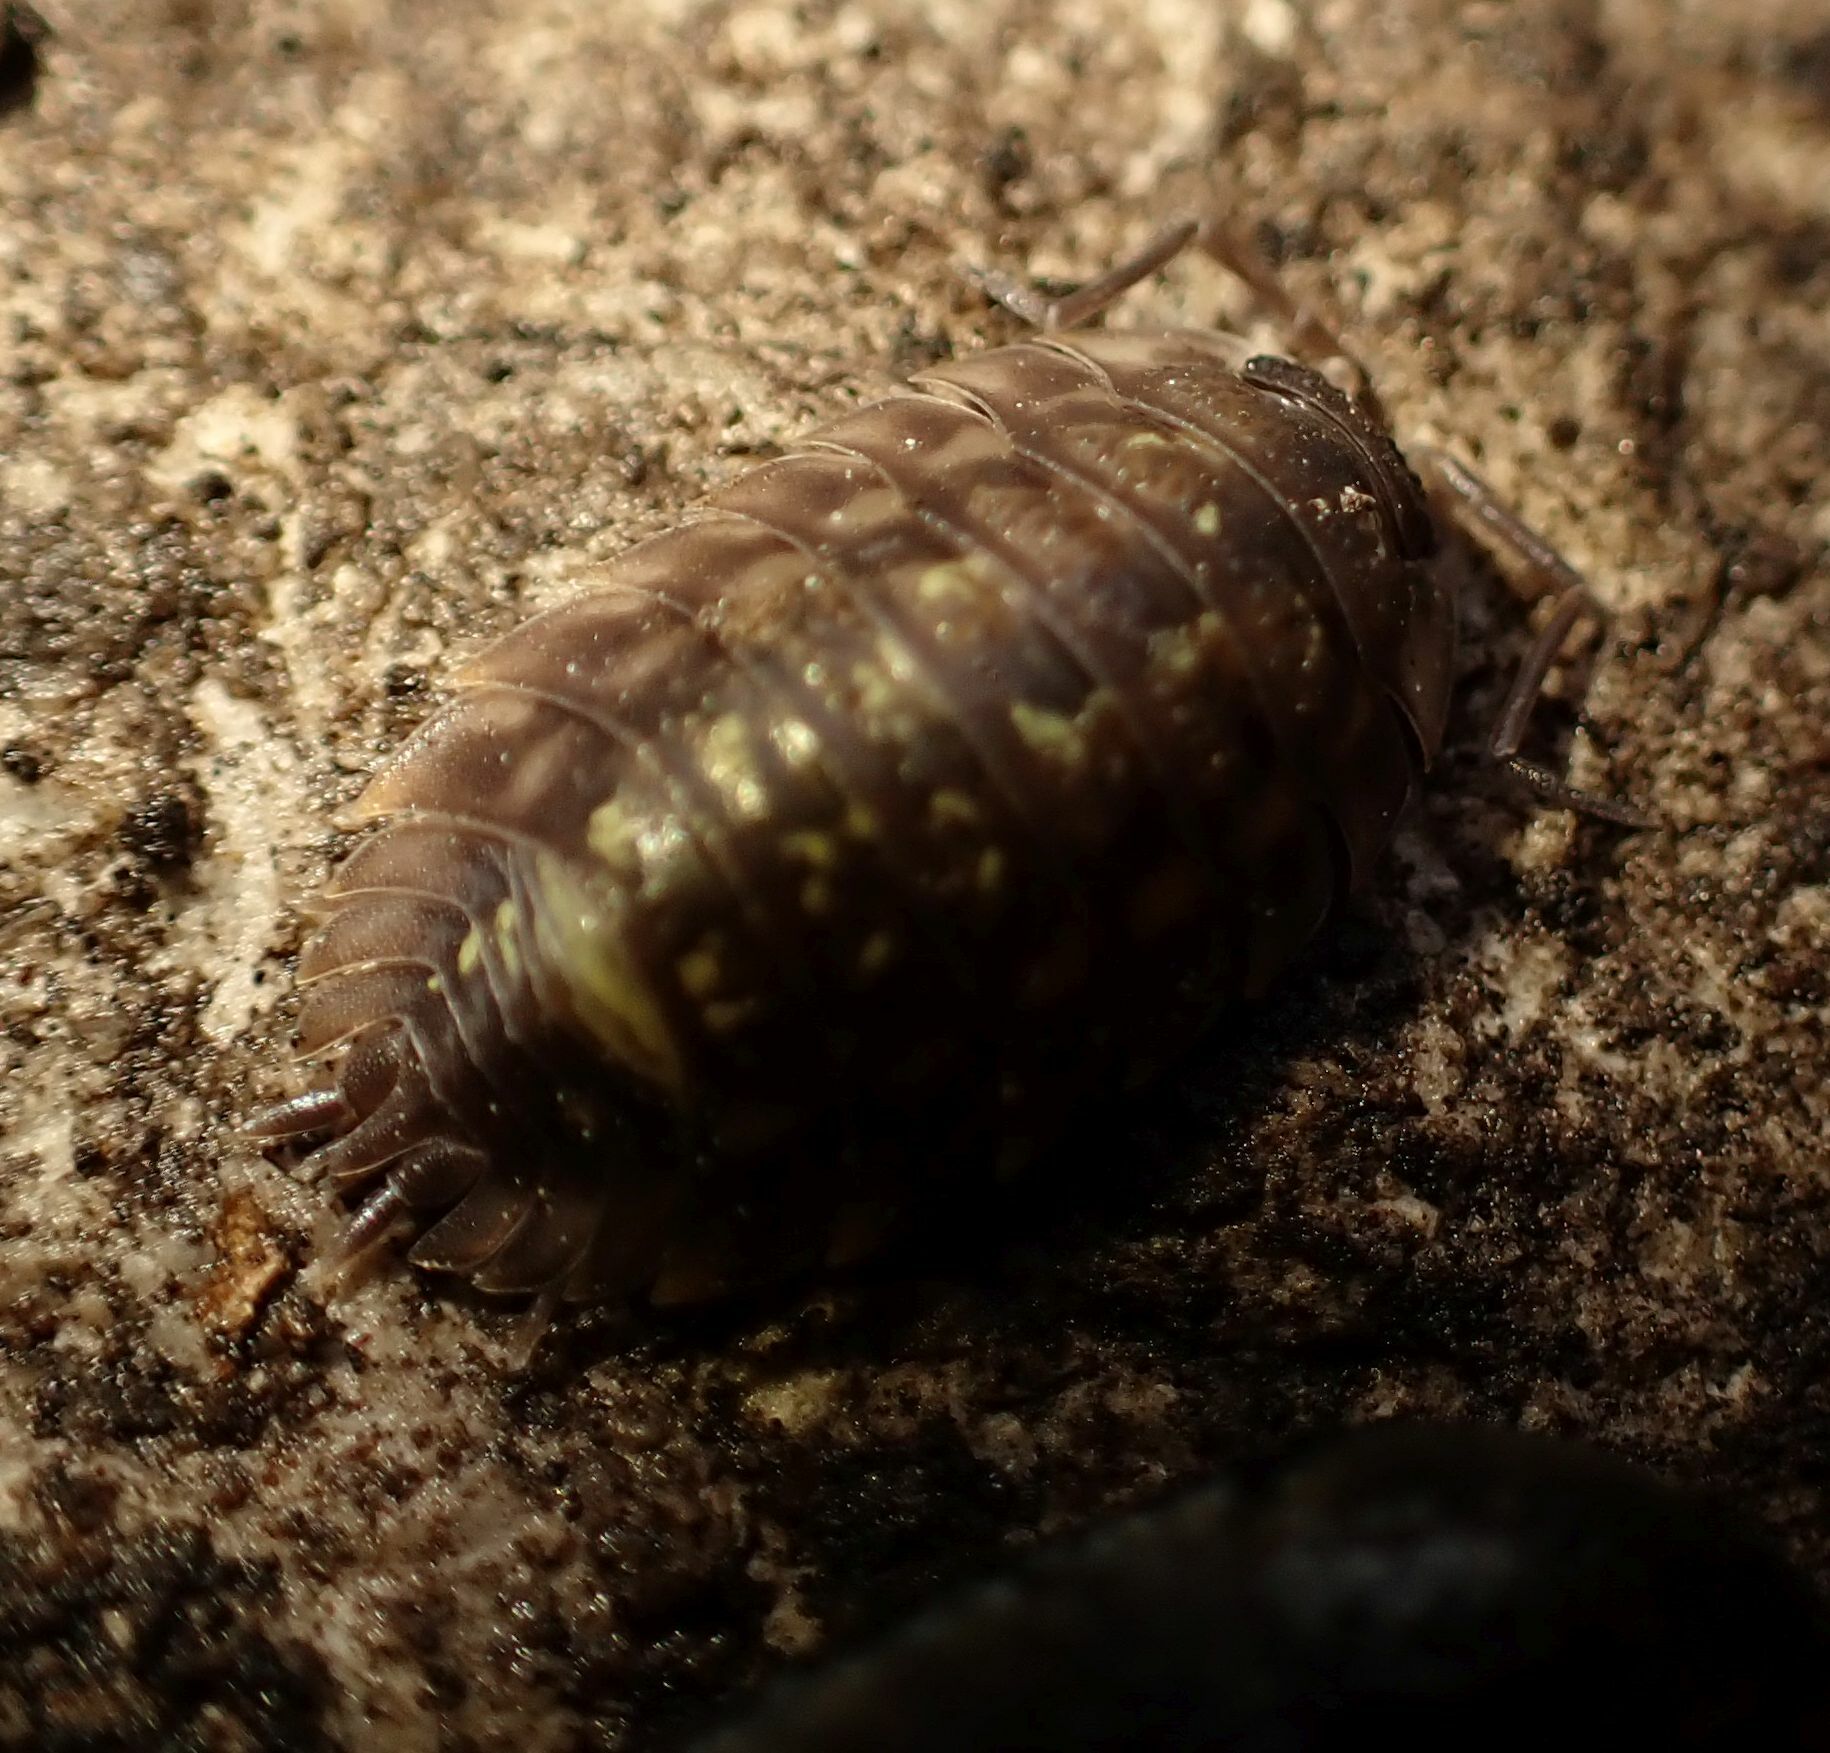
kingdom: Animalia
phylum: Arthropoda
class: Malacostraca
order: Isopoda
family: Oniscidae
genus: Oniscus
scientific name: Oniscus asellus
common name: Common shiny woodlouse
